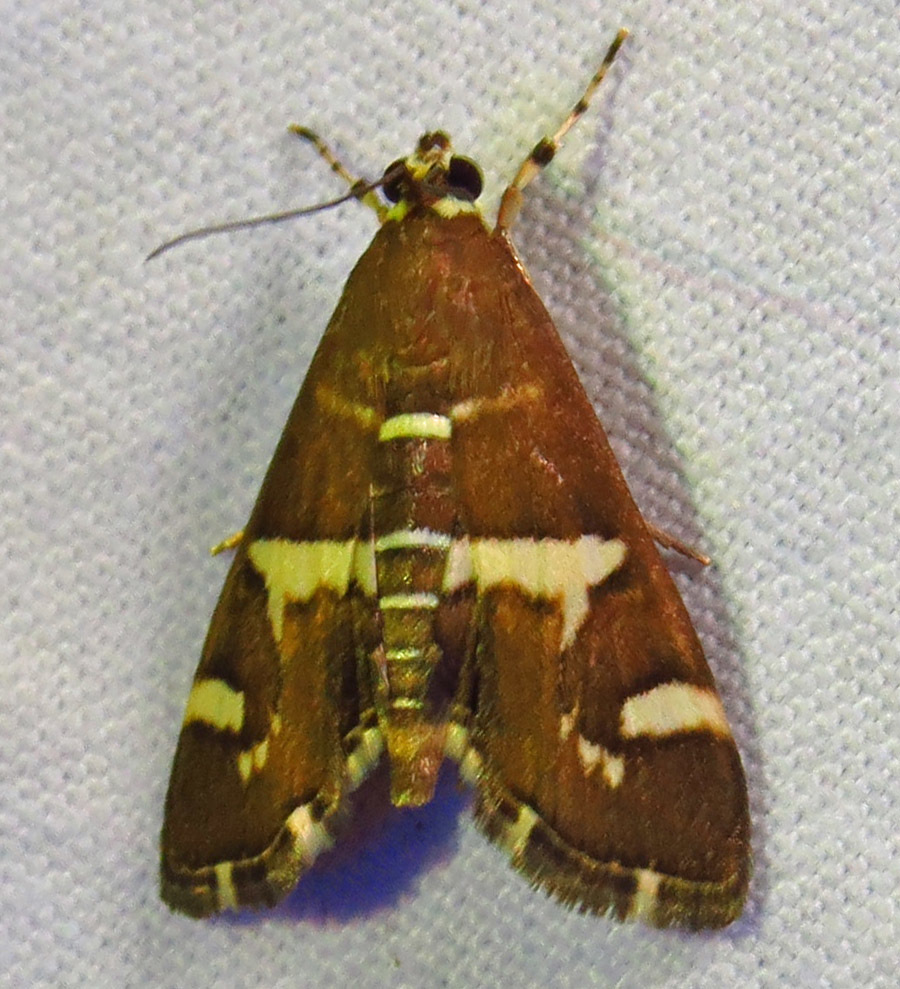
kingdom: Animalia
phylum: Arthropoda
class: Insecta
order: Lepidoptera
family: Crambidae
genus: Spoladea
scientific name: Spoladea recurvalis
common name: Beet webworm moth
